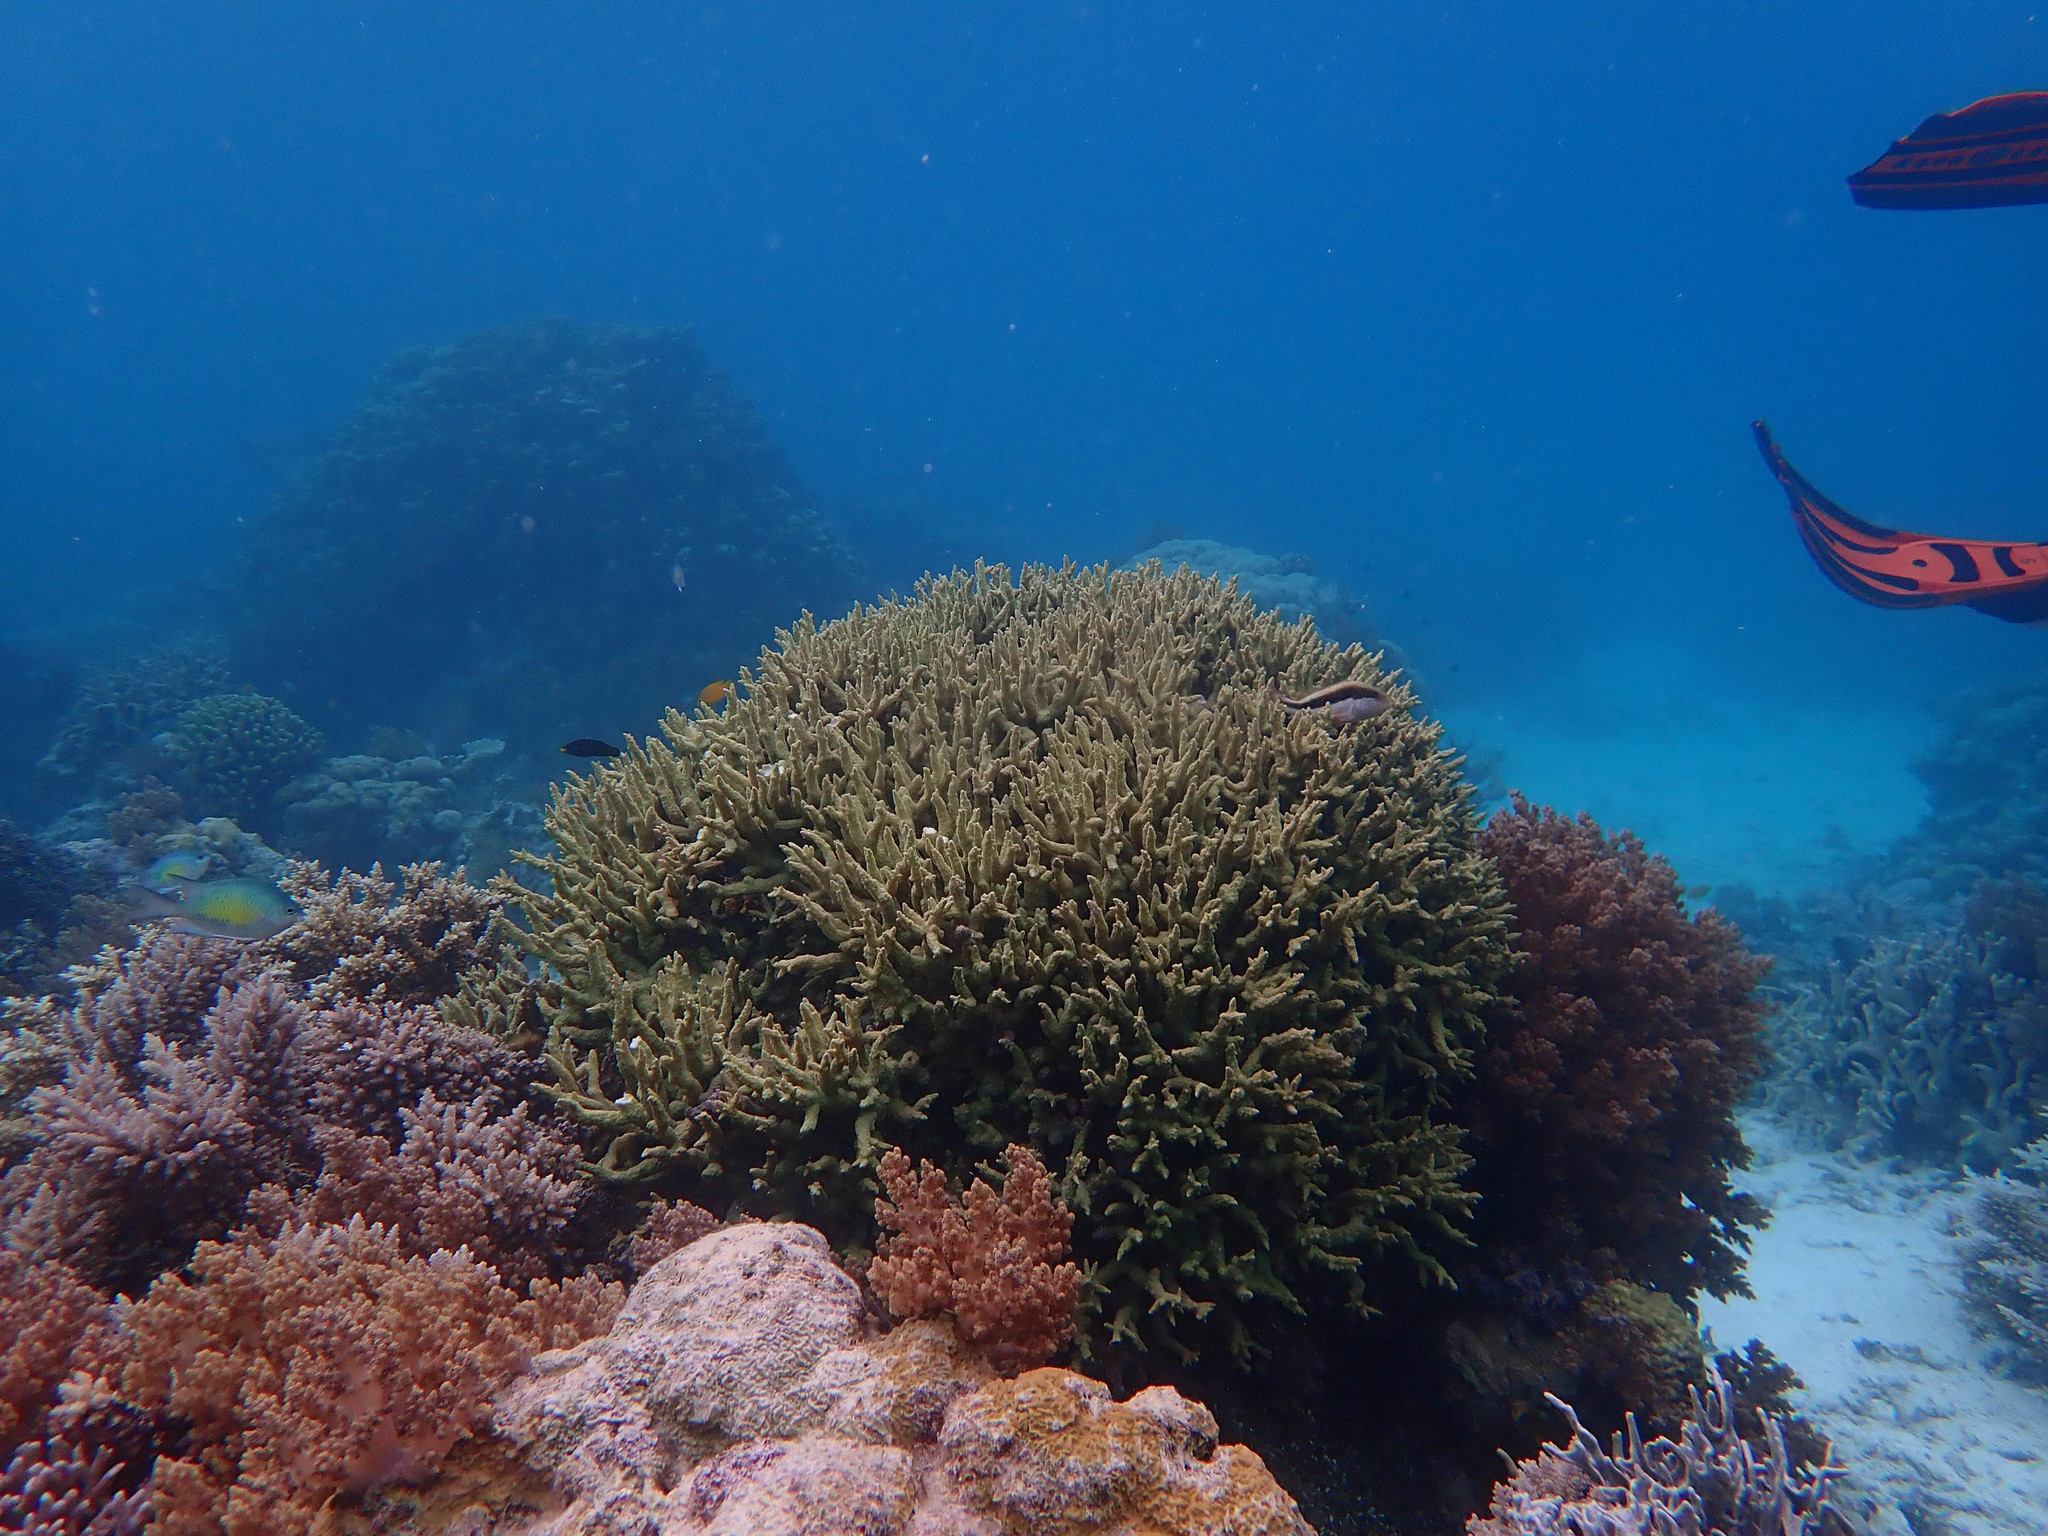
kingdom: Animalia
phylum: Chordata
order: Perciformes
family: Cirrhitidae
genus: Paracirrhites
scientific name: Paracirrhites forsteri
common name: Freckled hawkfish
